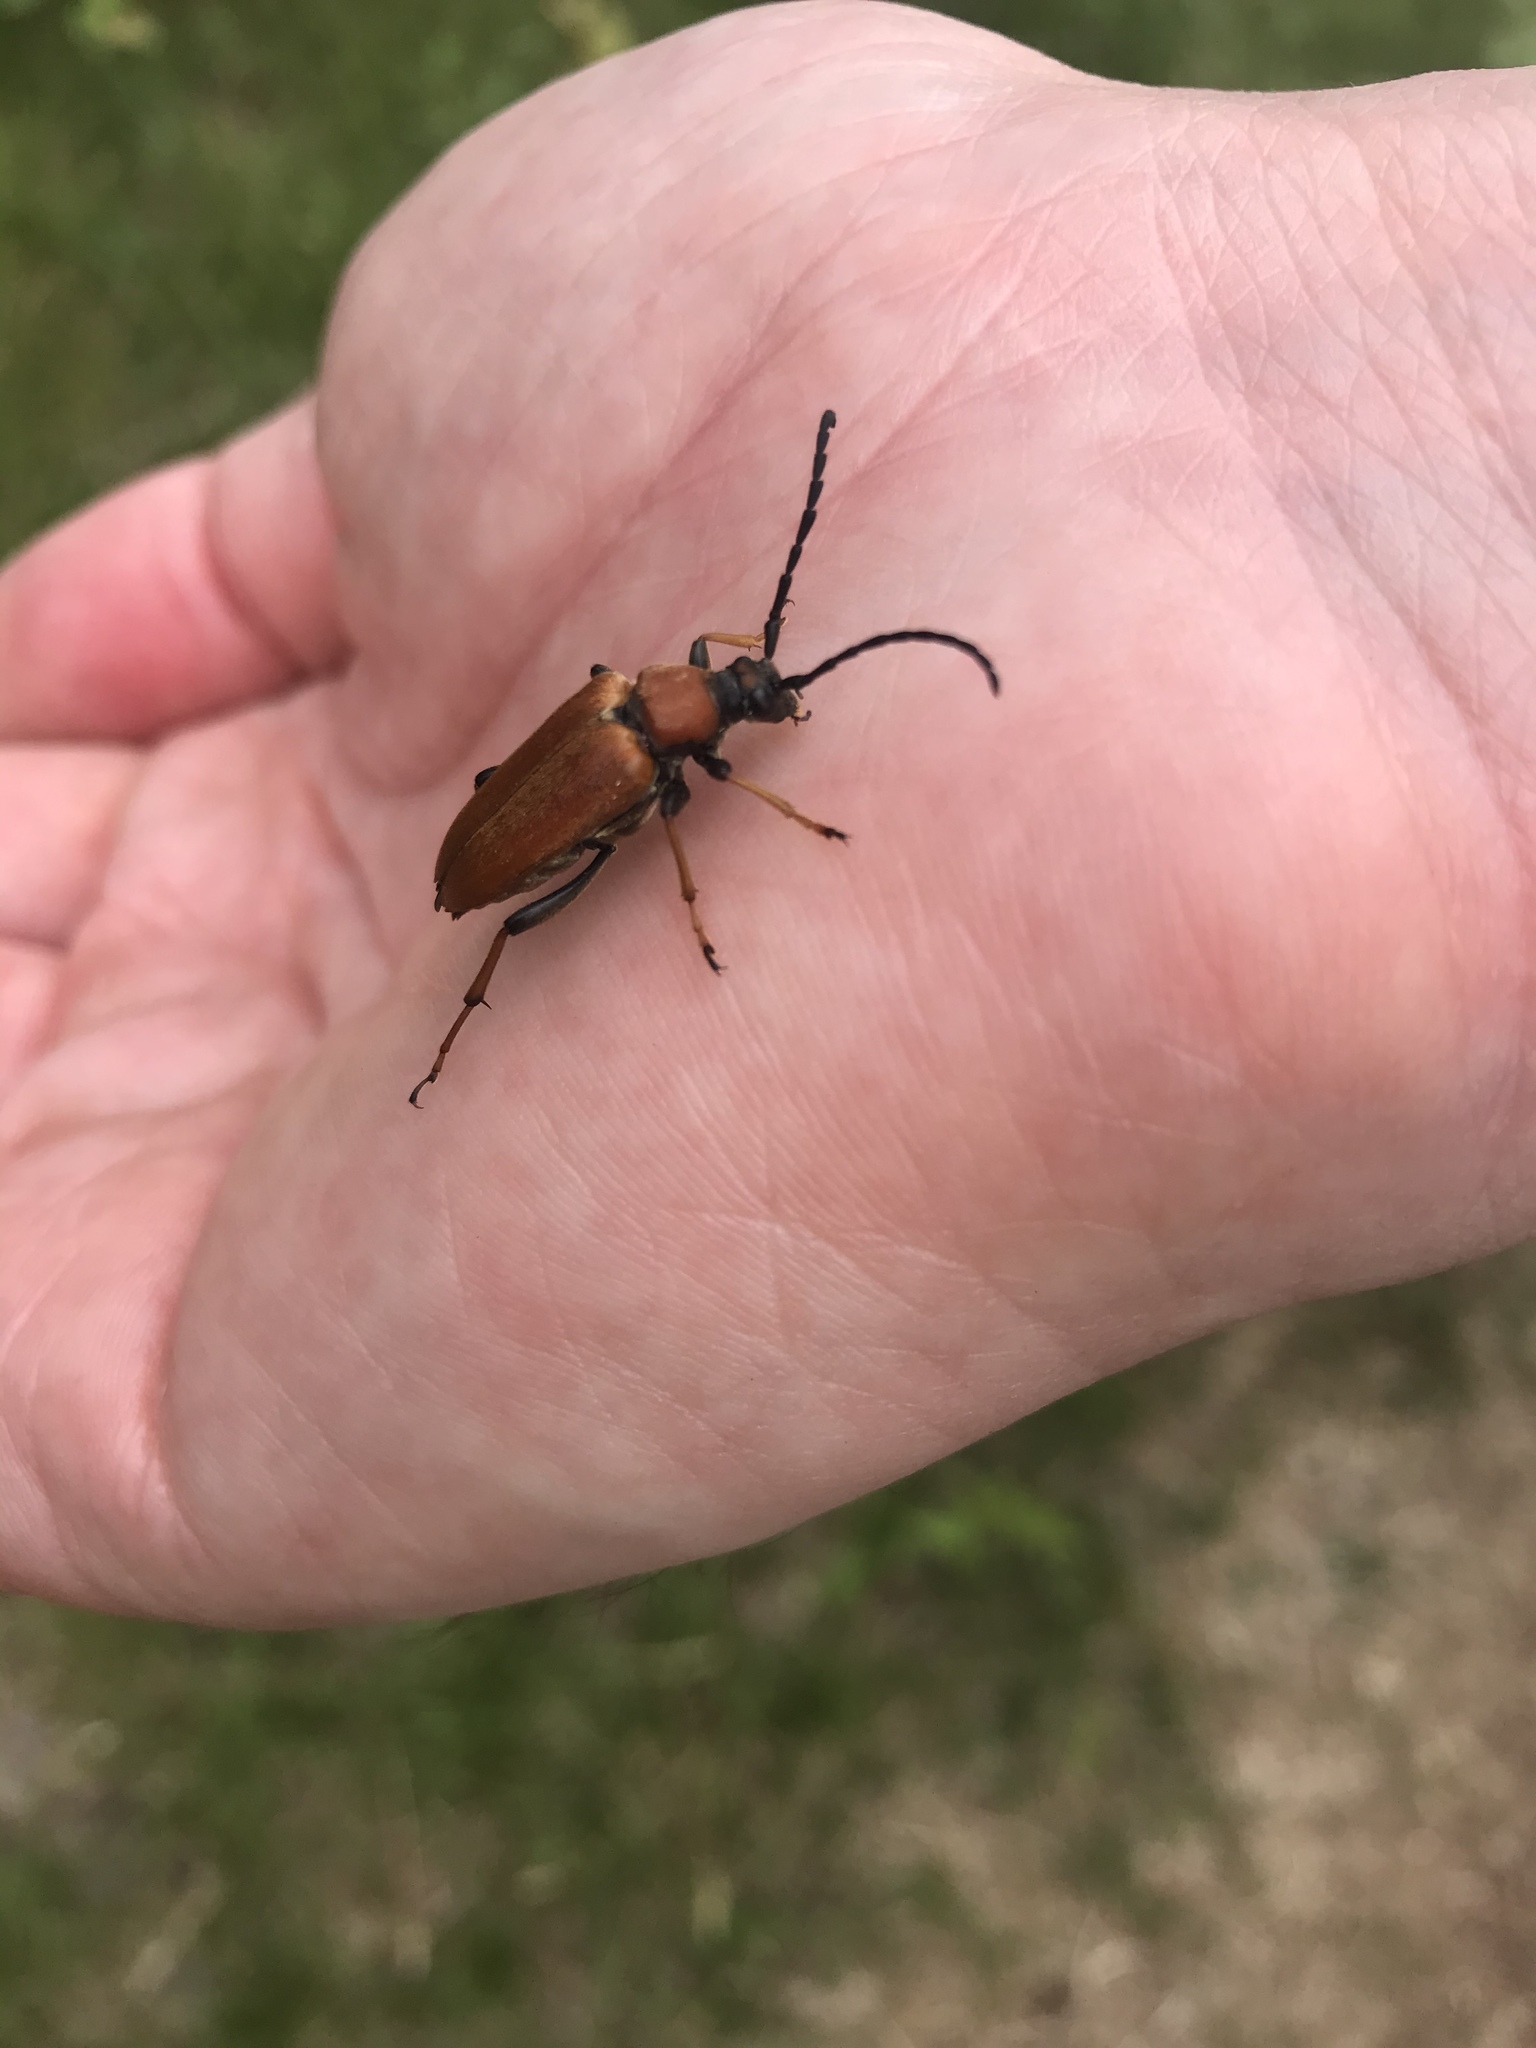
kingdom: Animalia
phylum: Arthropoda
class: Insecta
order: Coleoptera
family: Cerambycidae
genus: Stictoleptura
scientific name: Stictoleptura rubra
